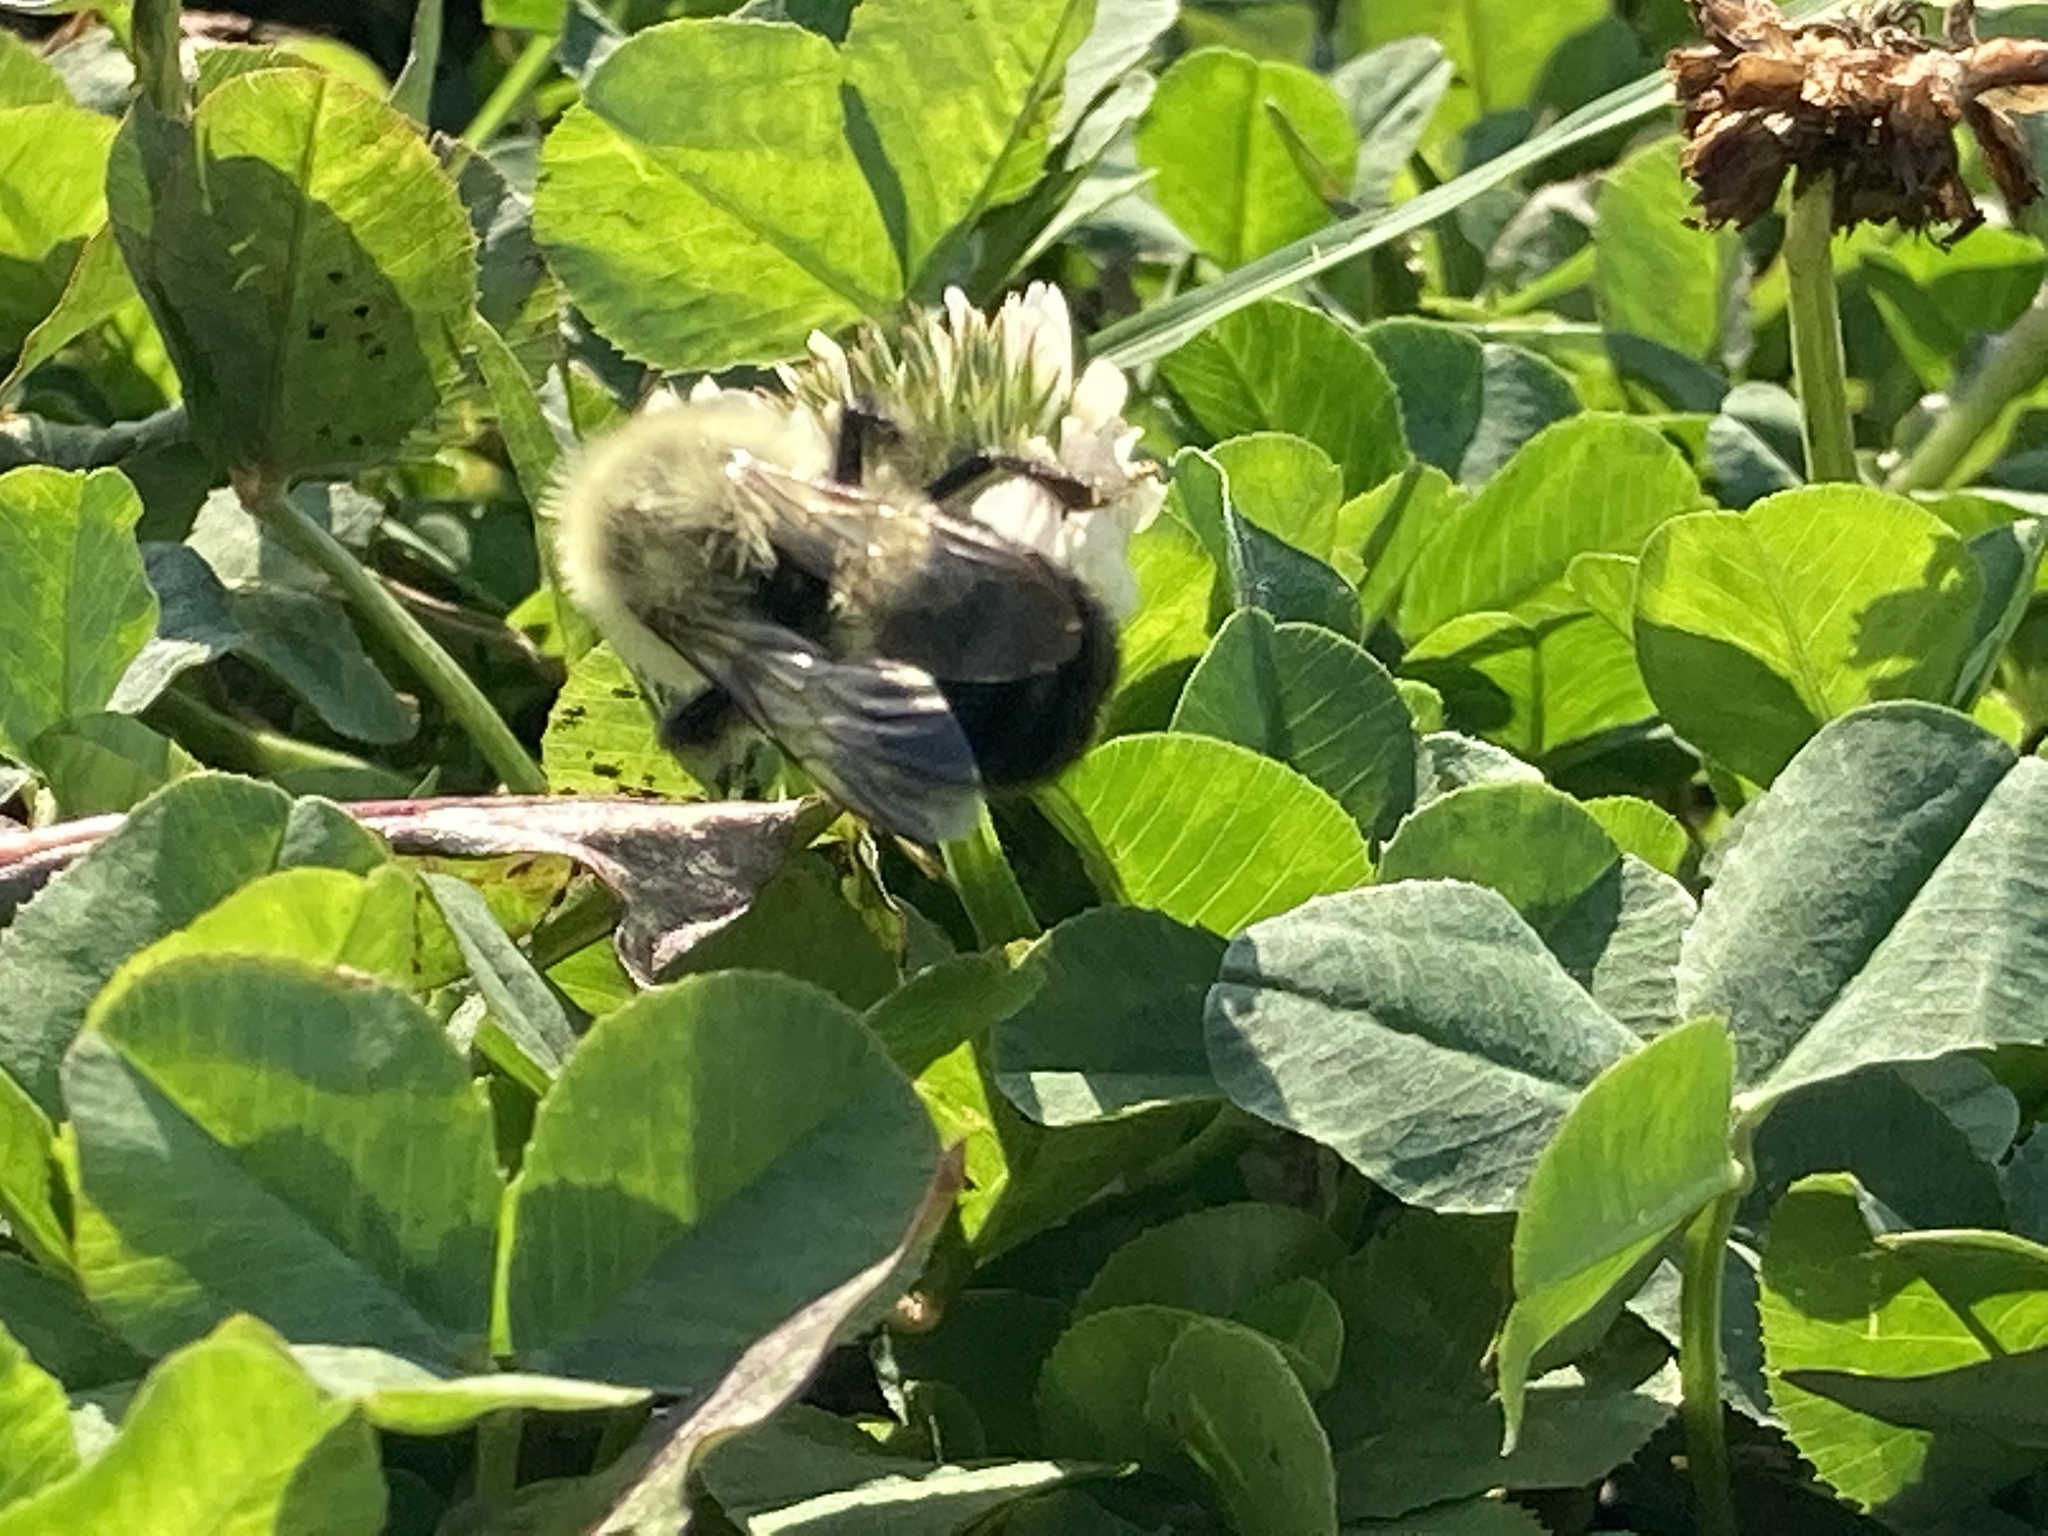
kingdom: Animalia
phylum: Arthropoda
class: Insecta
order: Hymenoptera
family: Apidae
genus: Bombus
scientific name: Bombus impatiens
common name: Common eastern bumble bee
